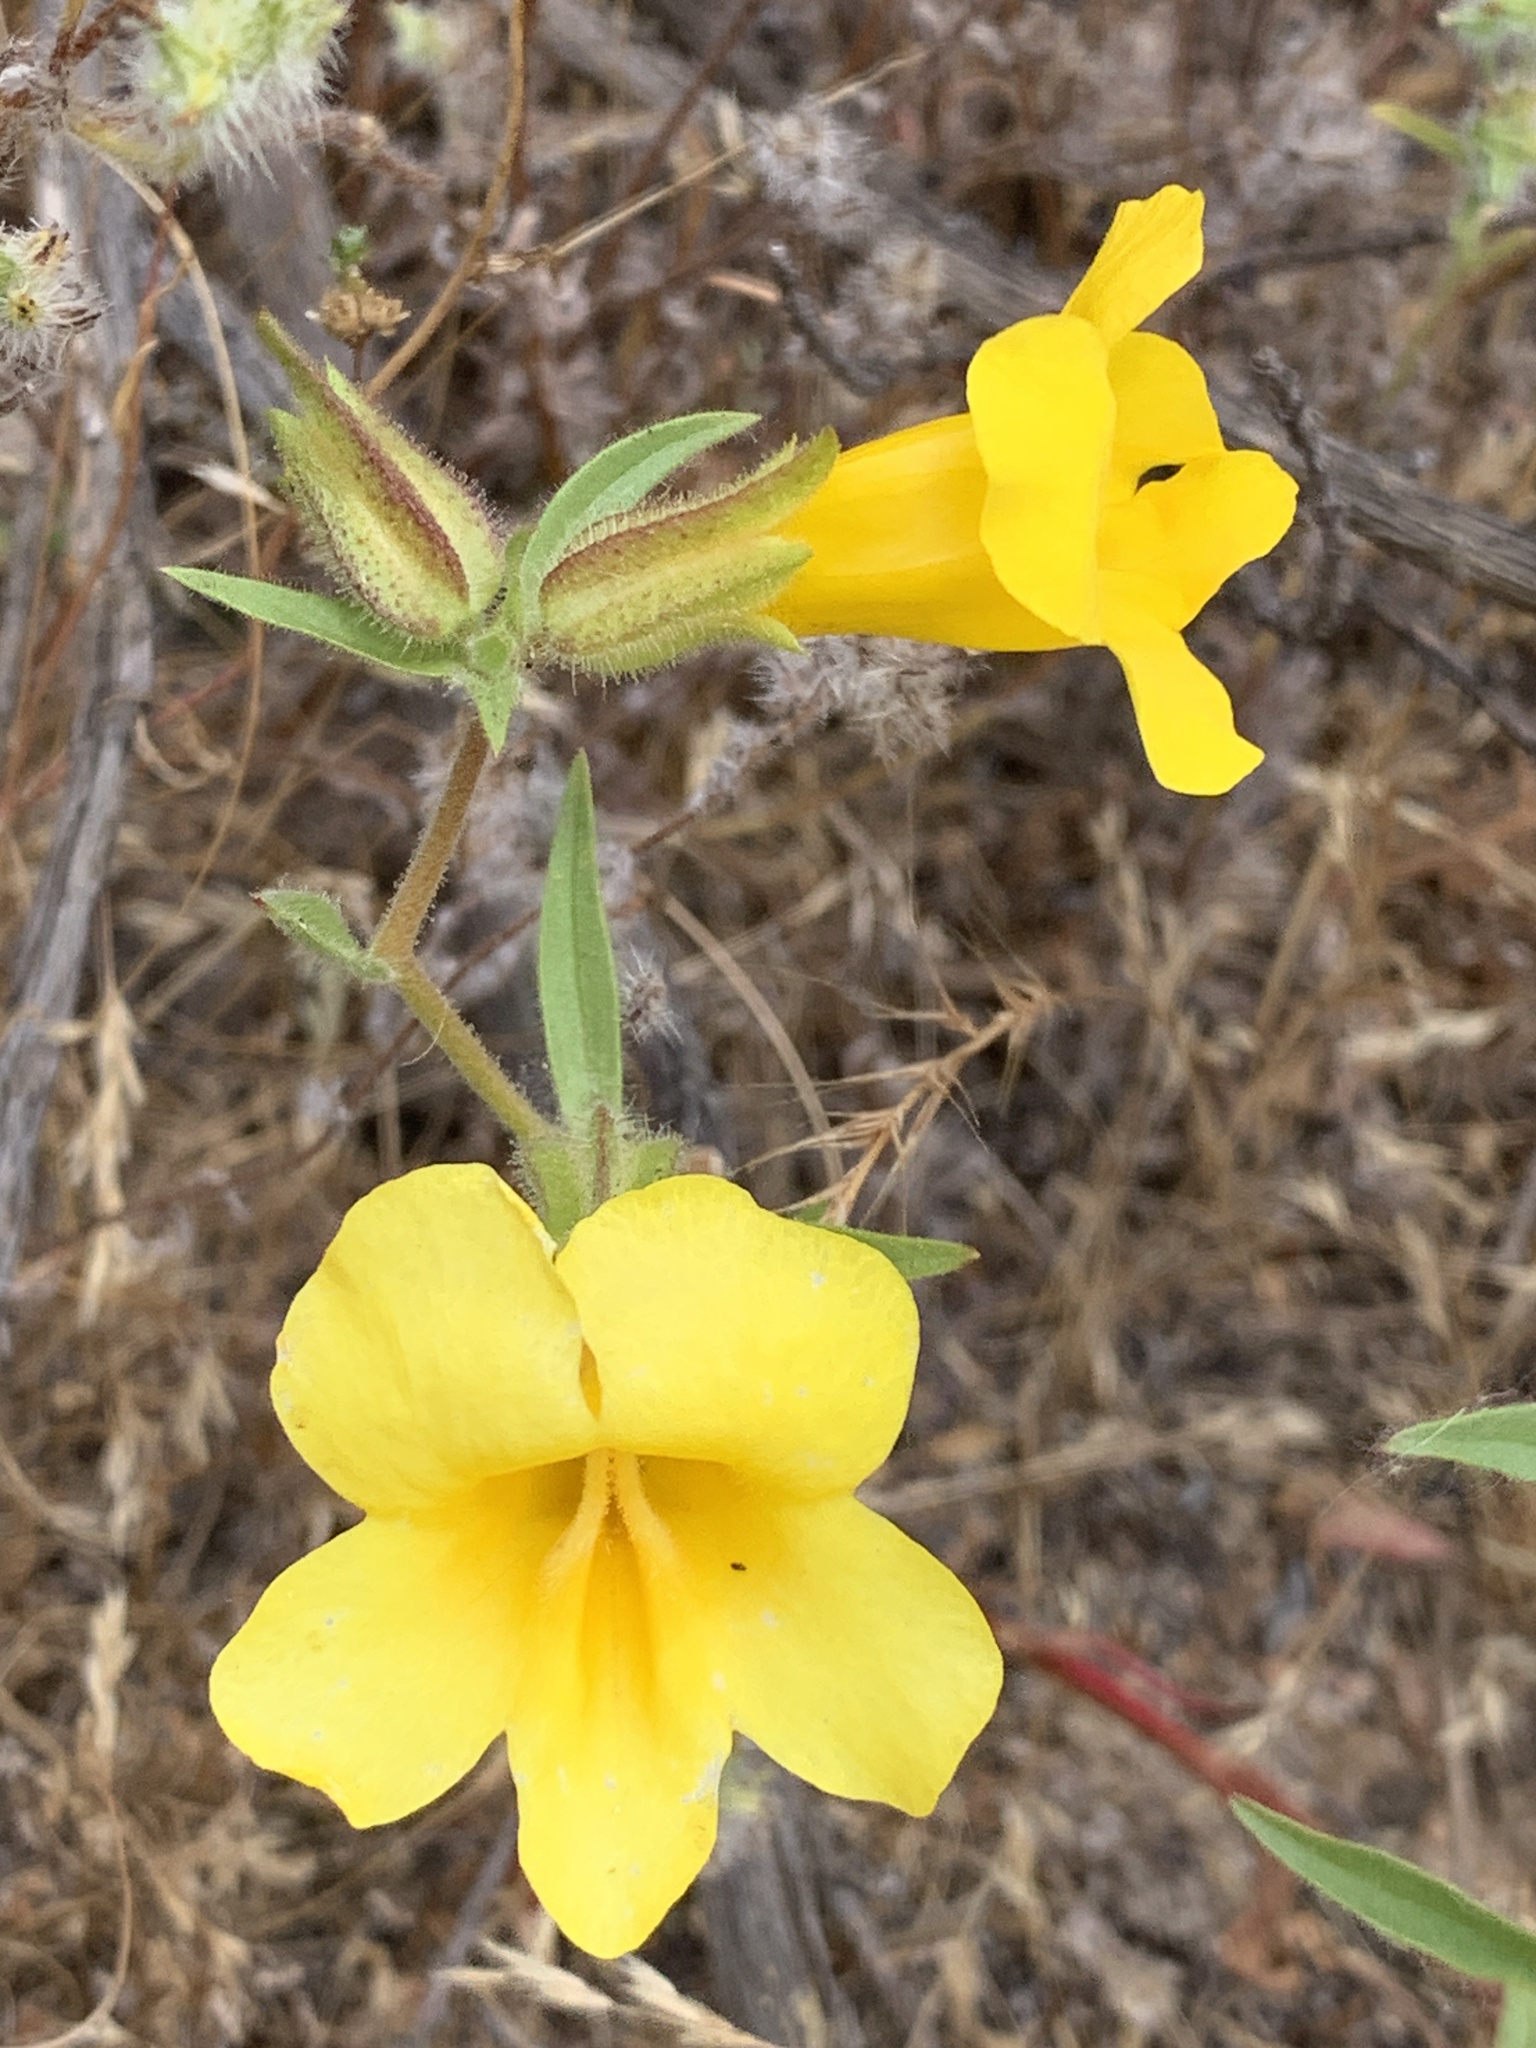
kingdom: Plantae
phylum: Tracheophyta
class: Magnoliopsida
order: Lamiales
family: Phrymaceae
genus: Diplacus
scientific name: Diplacus brevipes
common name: Wide-throat yellow monkey-flower
